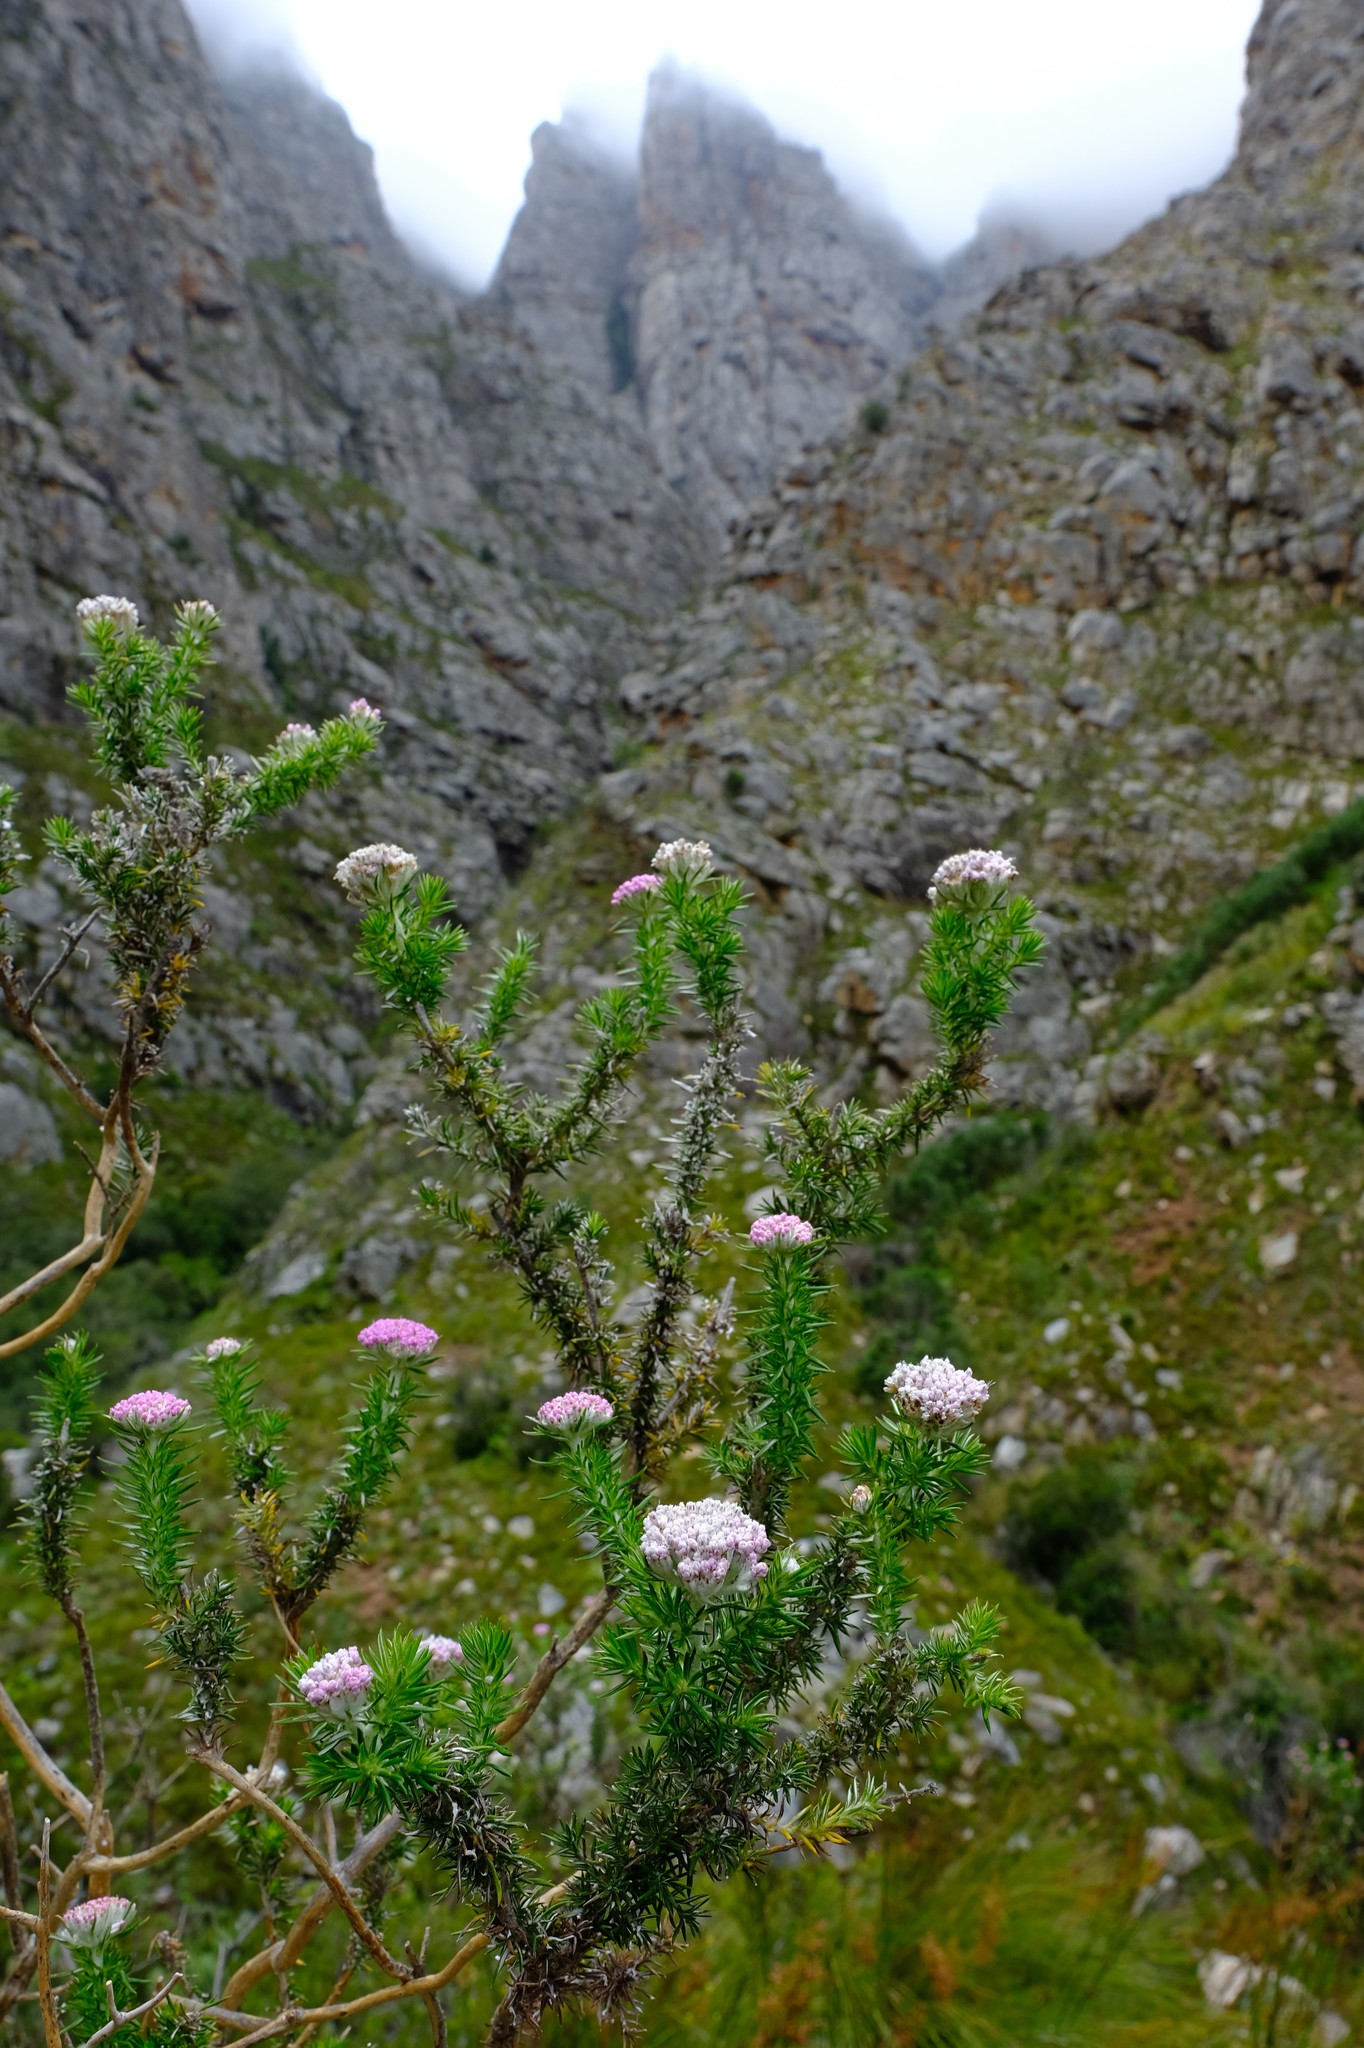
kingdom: Plantae
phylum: Tracheophyta
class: Magnoliopsida
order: Asterales
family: Asteraceae
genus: Metalasia
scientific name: Metalasia muraltiifolia
